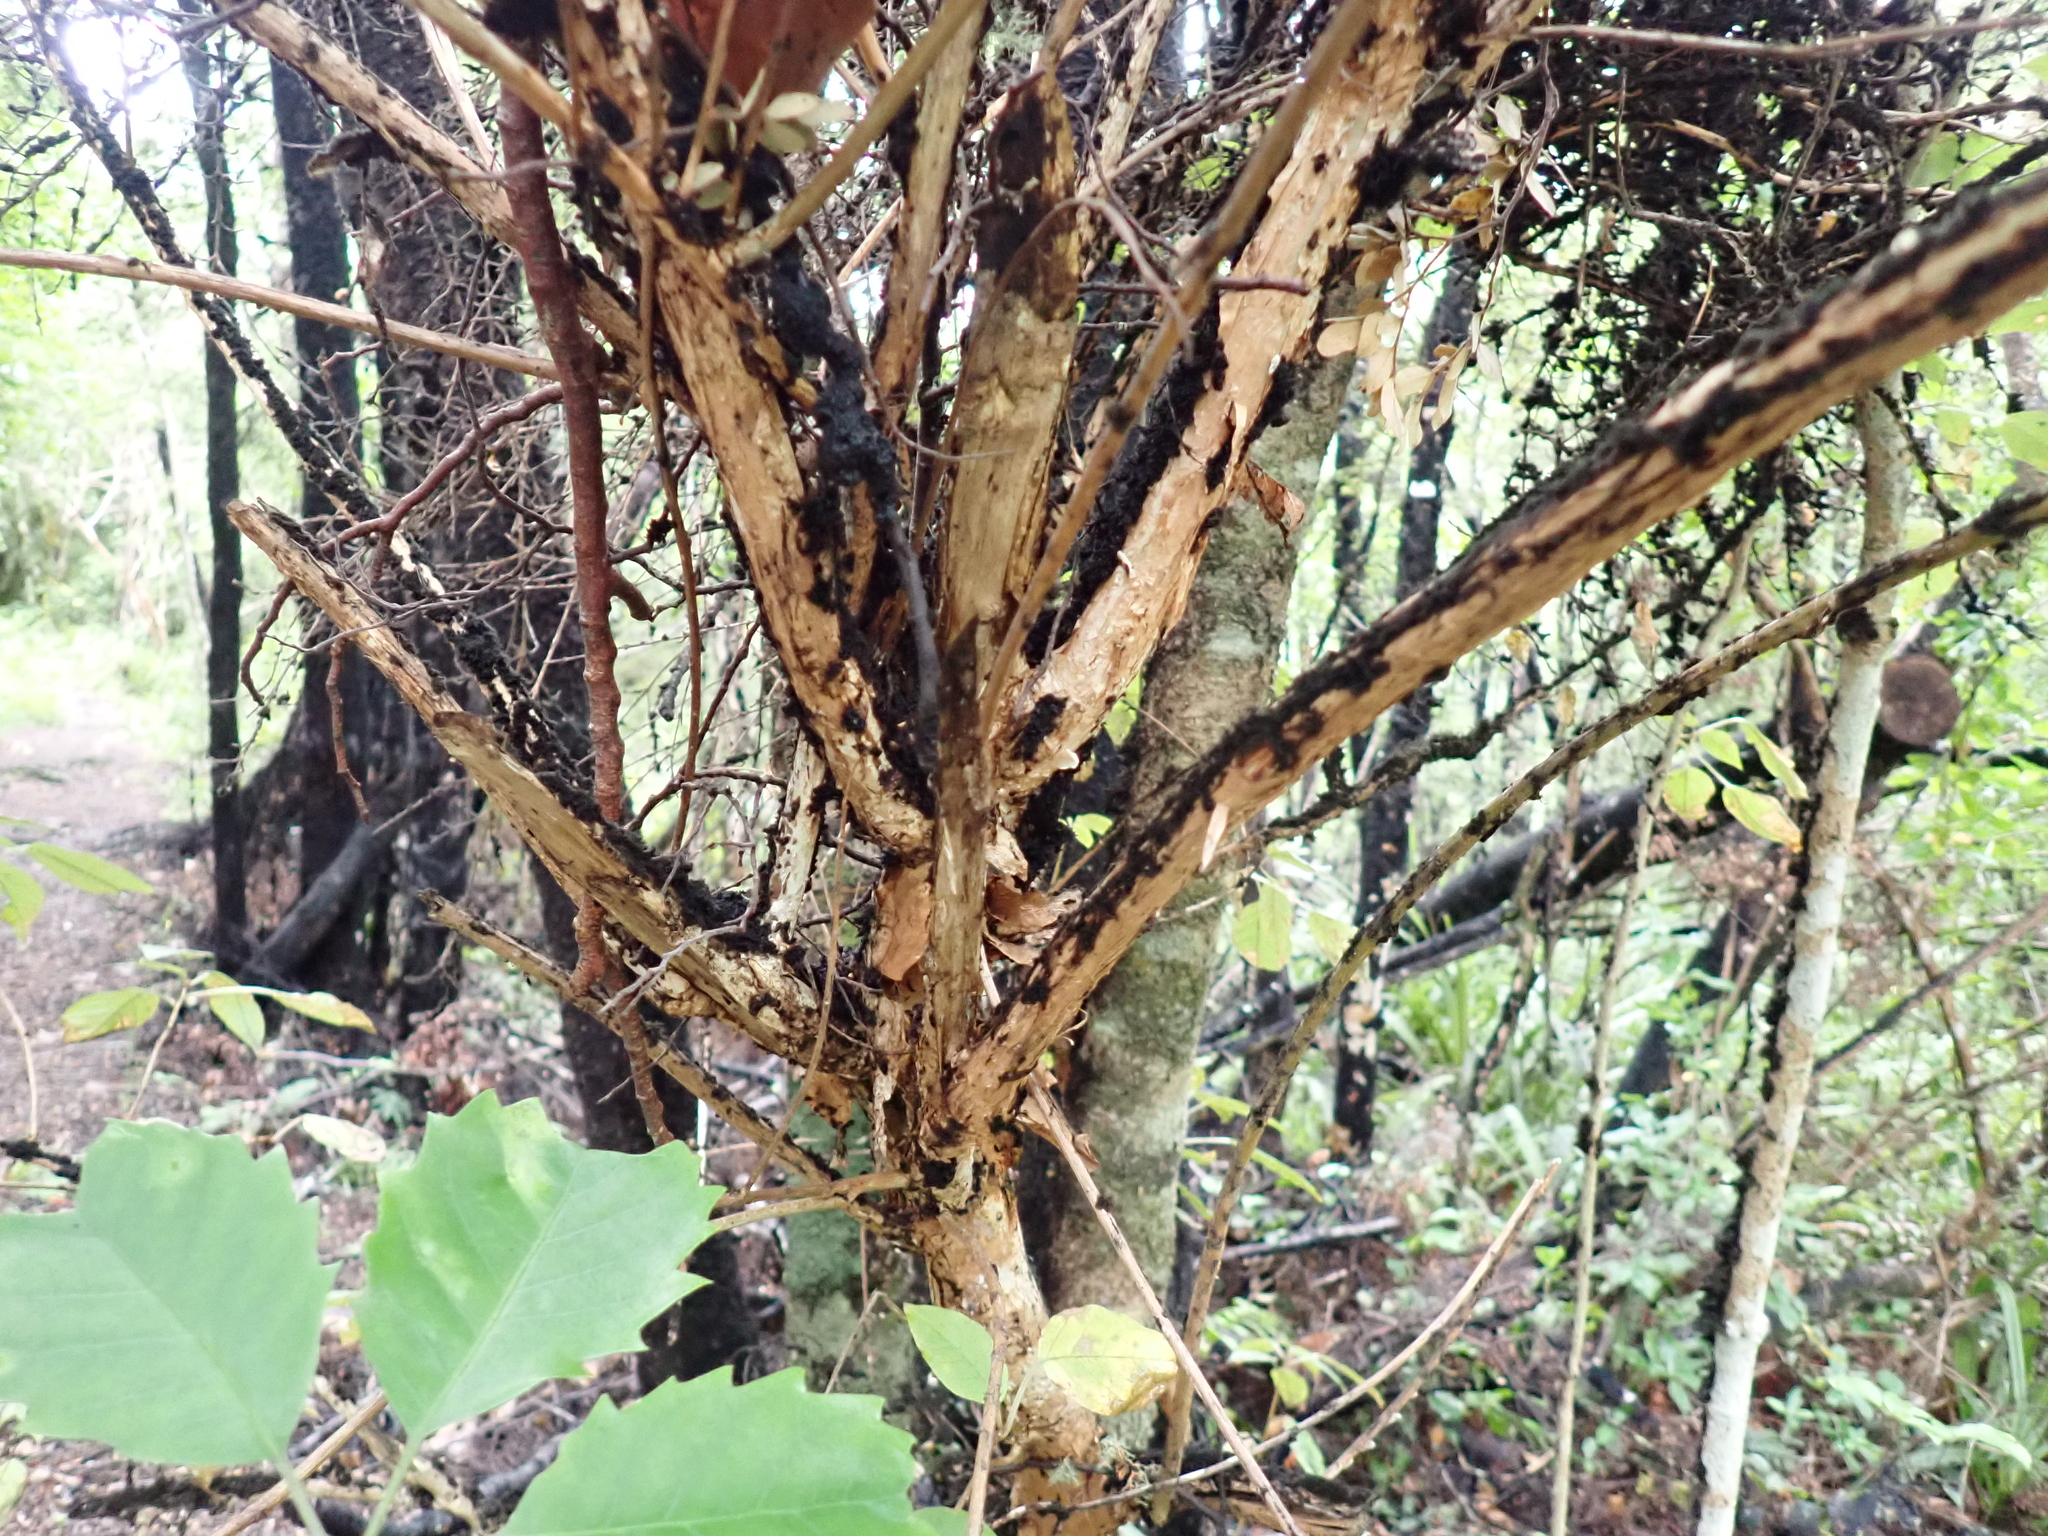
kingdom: Plantae
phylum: Tracheophyta
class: Magnoliopsida
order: Myrtales
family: Onagraceae
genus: Fuchsia
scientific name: Fuchsia excorticata
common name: Tree fuchsia
